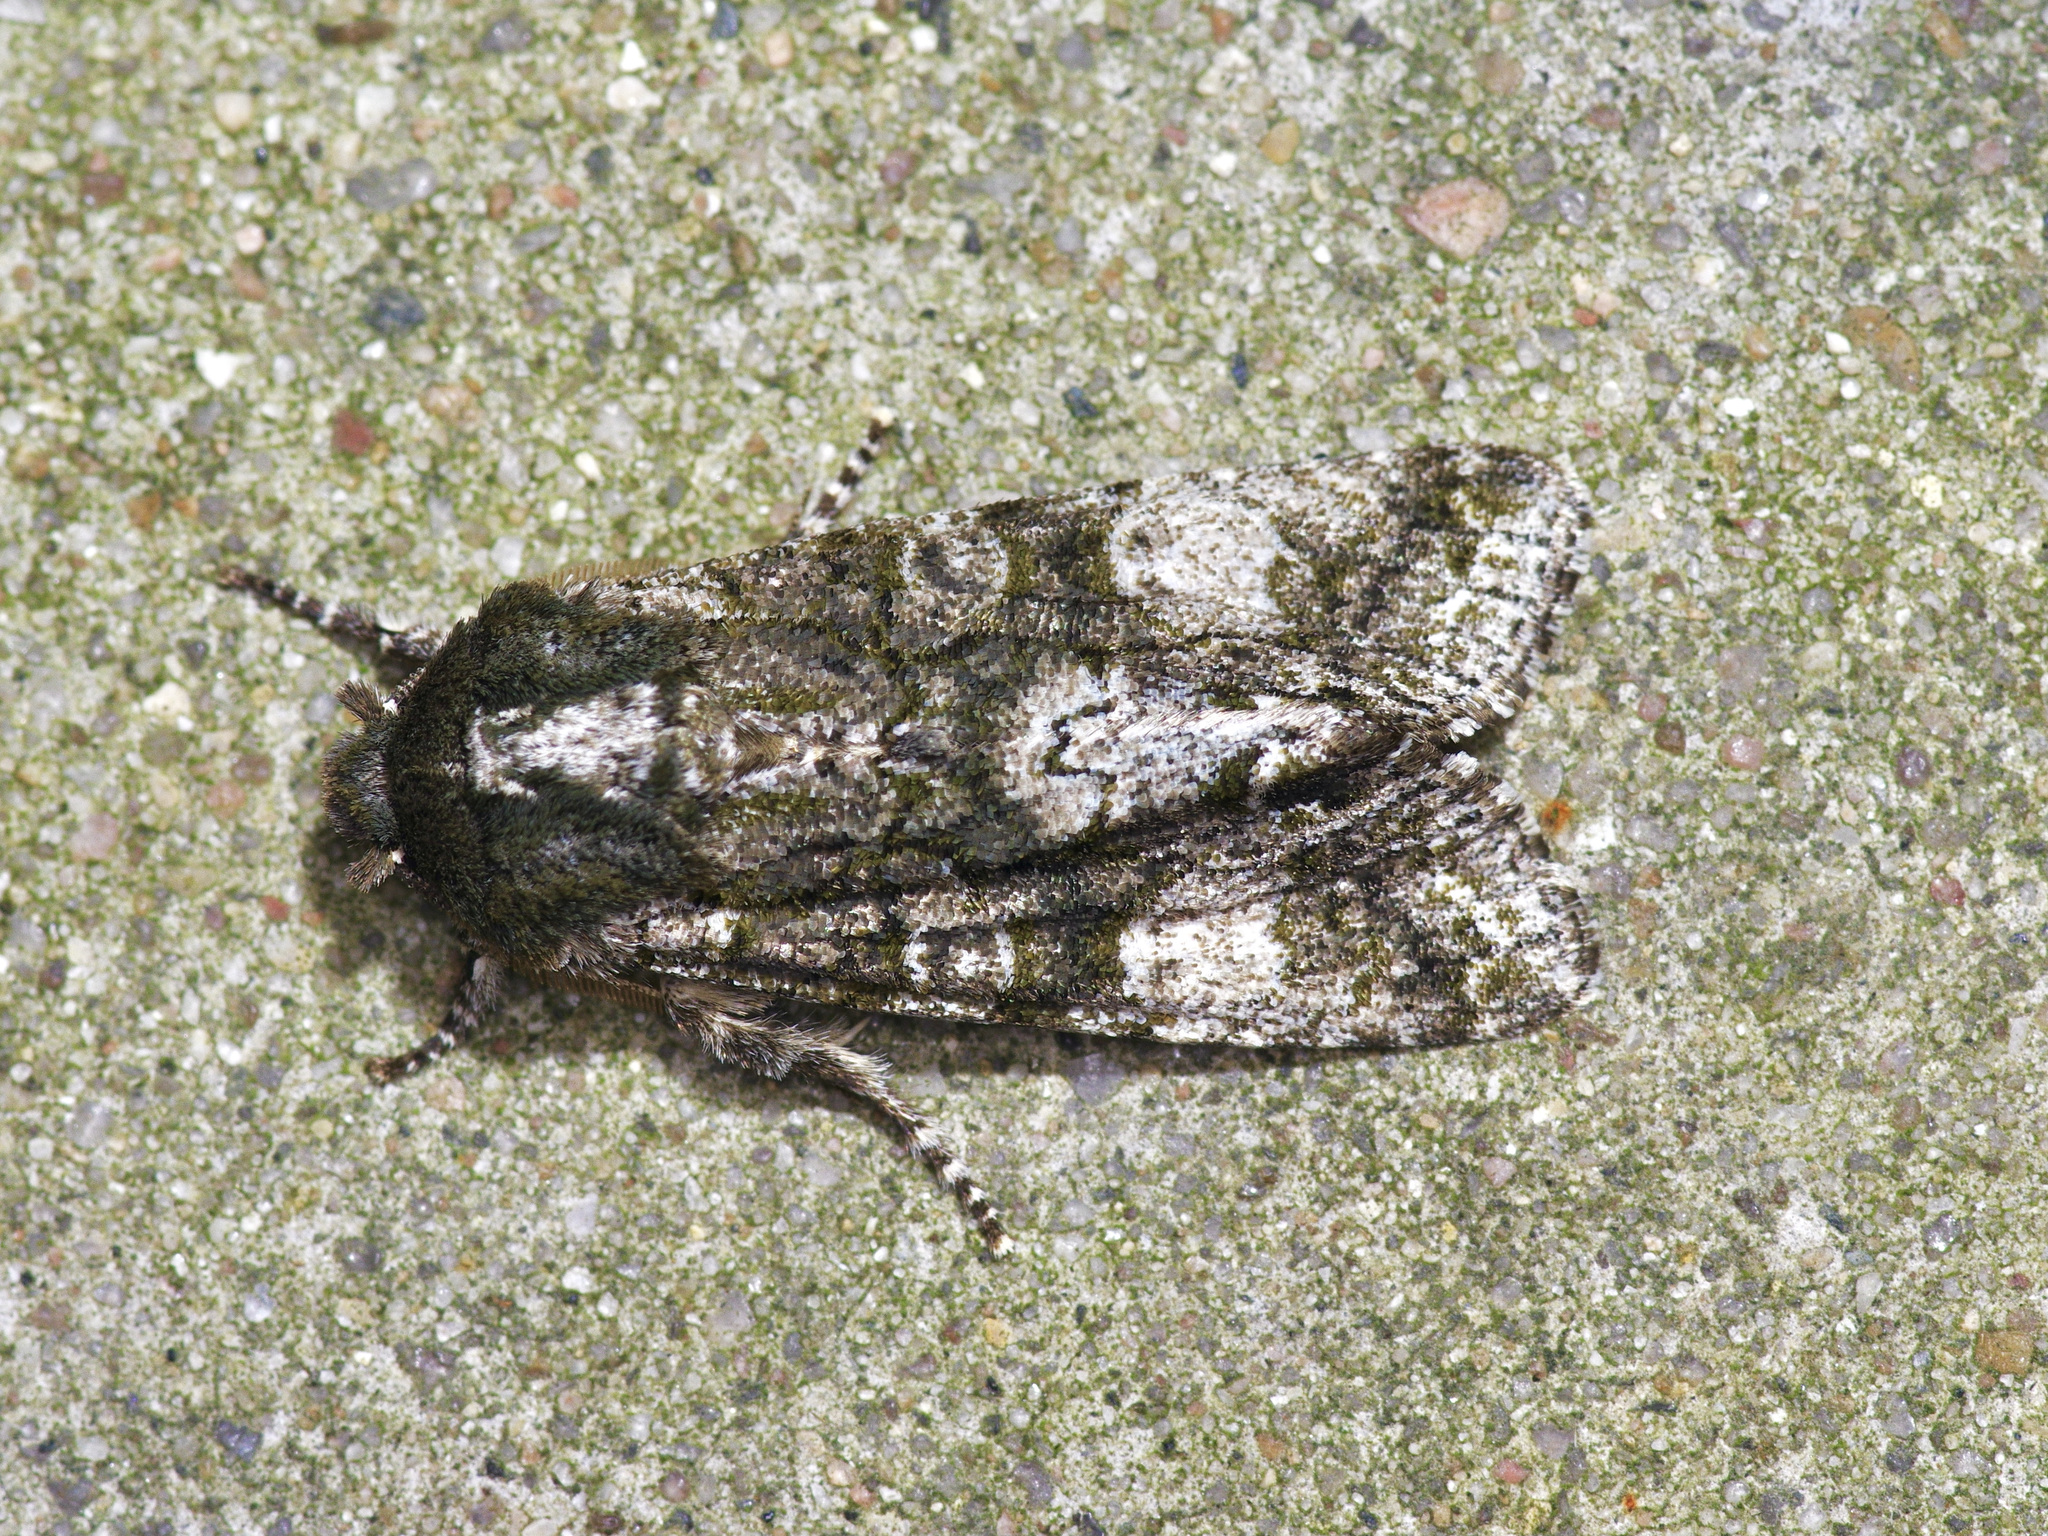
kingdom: Animalia
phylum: Arthropoda
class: Insecta
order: Lepidoptera
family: Noctuidae
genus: Psaphida
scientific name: Psaphida grotei
